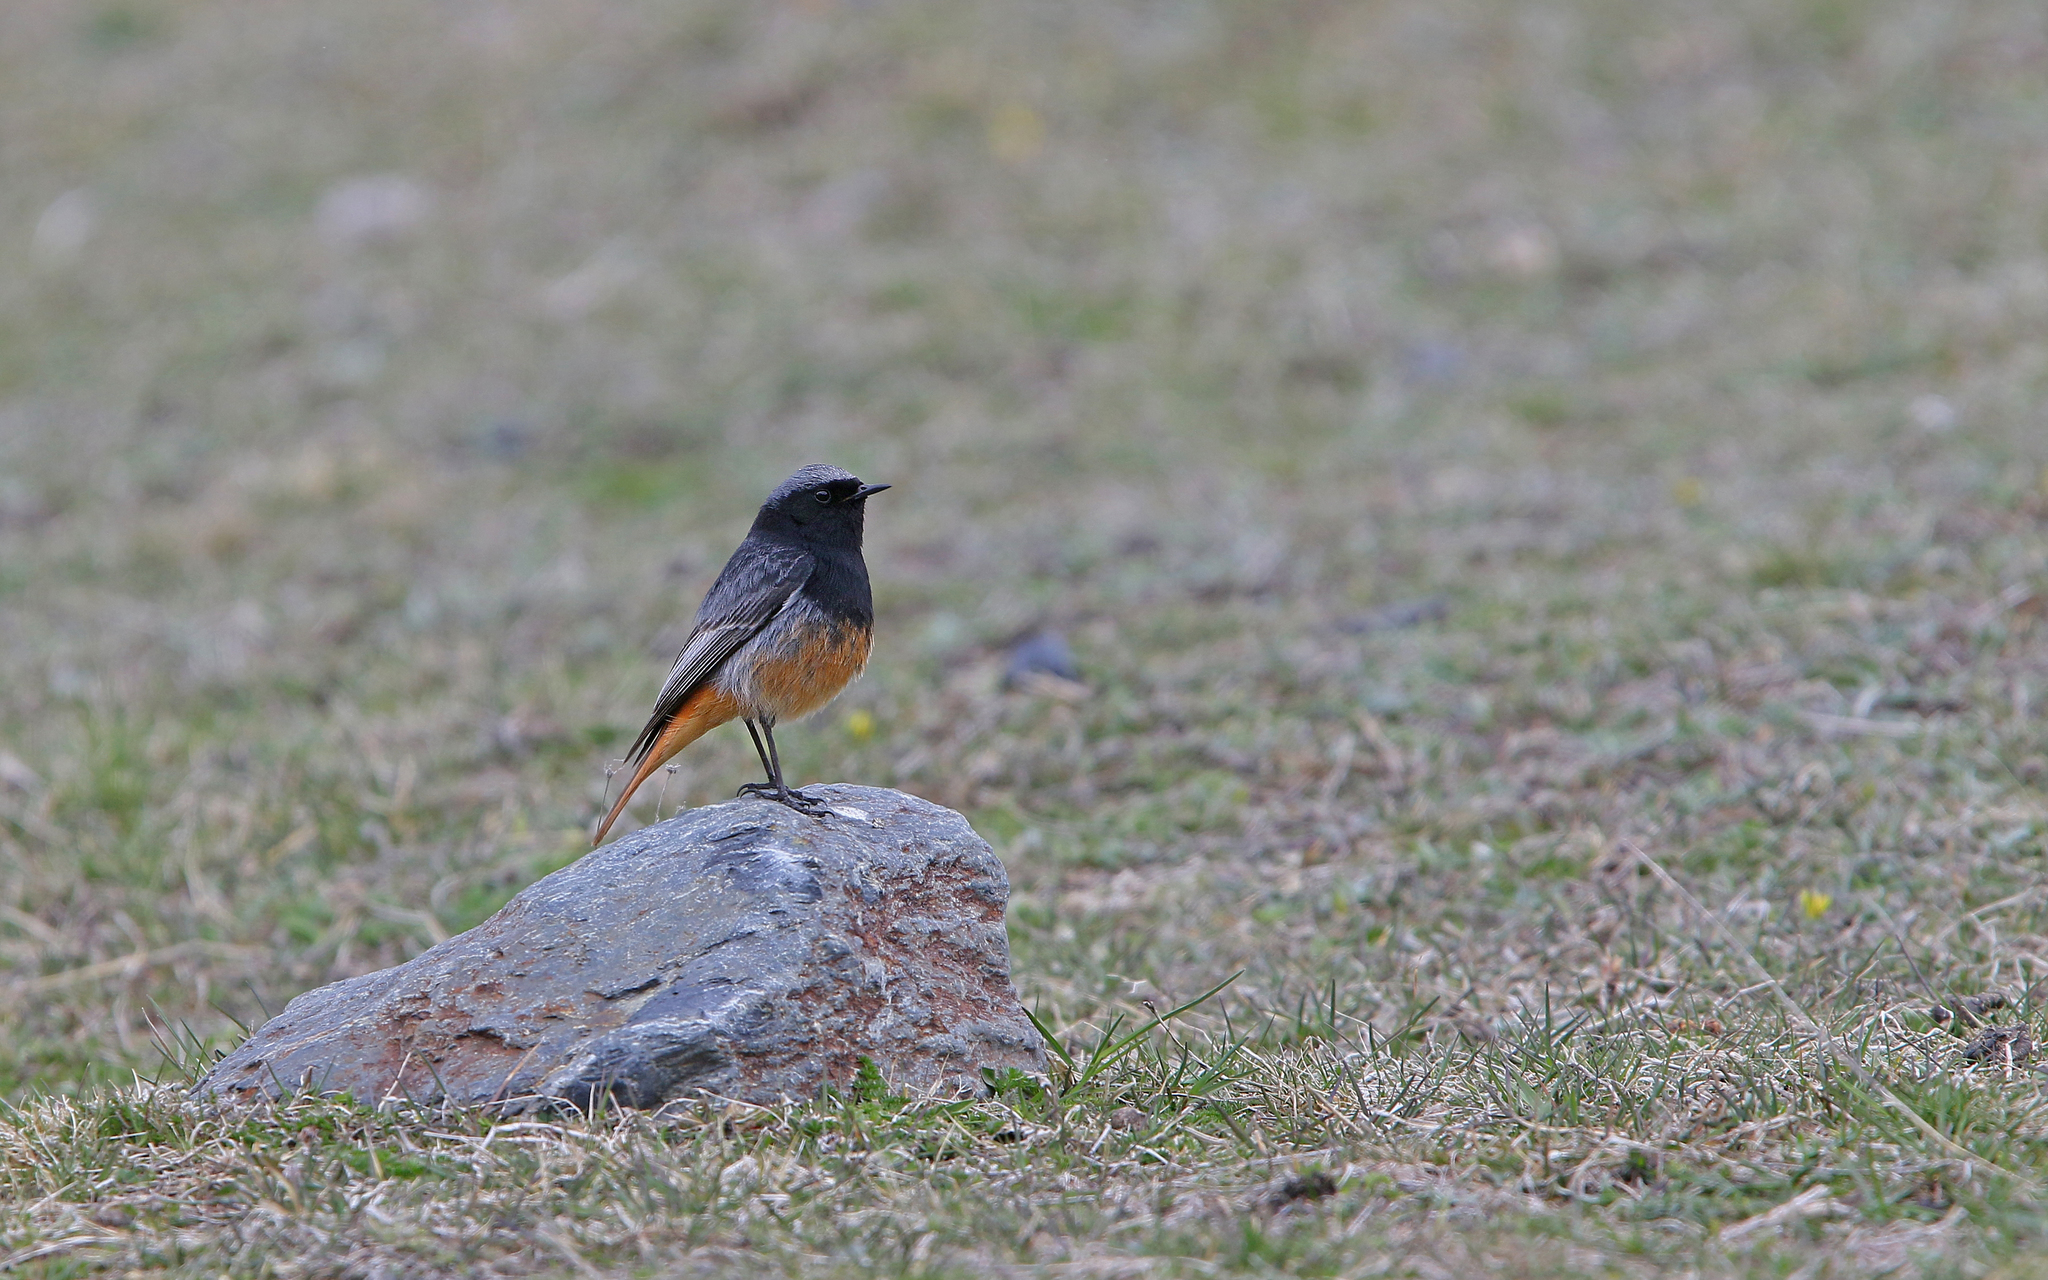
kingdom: Animalia
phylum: Chordata
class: Aves
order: Passeriformes
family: Muscicapidae
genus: Phoenicurus
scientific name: Phoenicurus ochruros
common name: Black redstart
